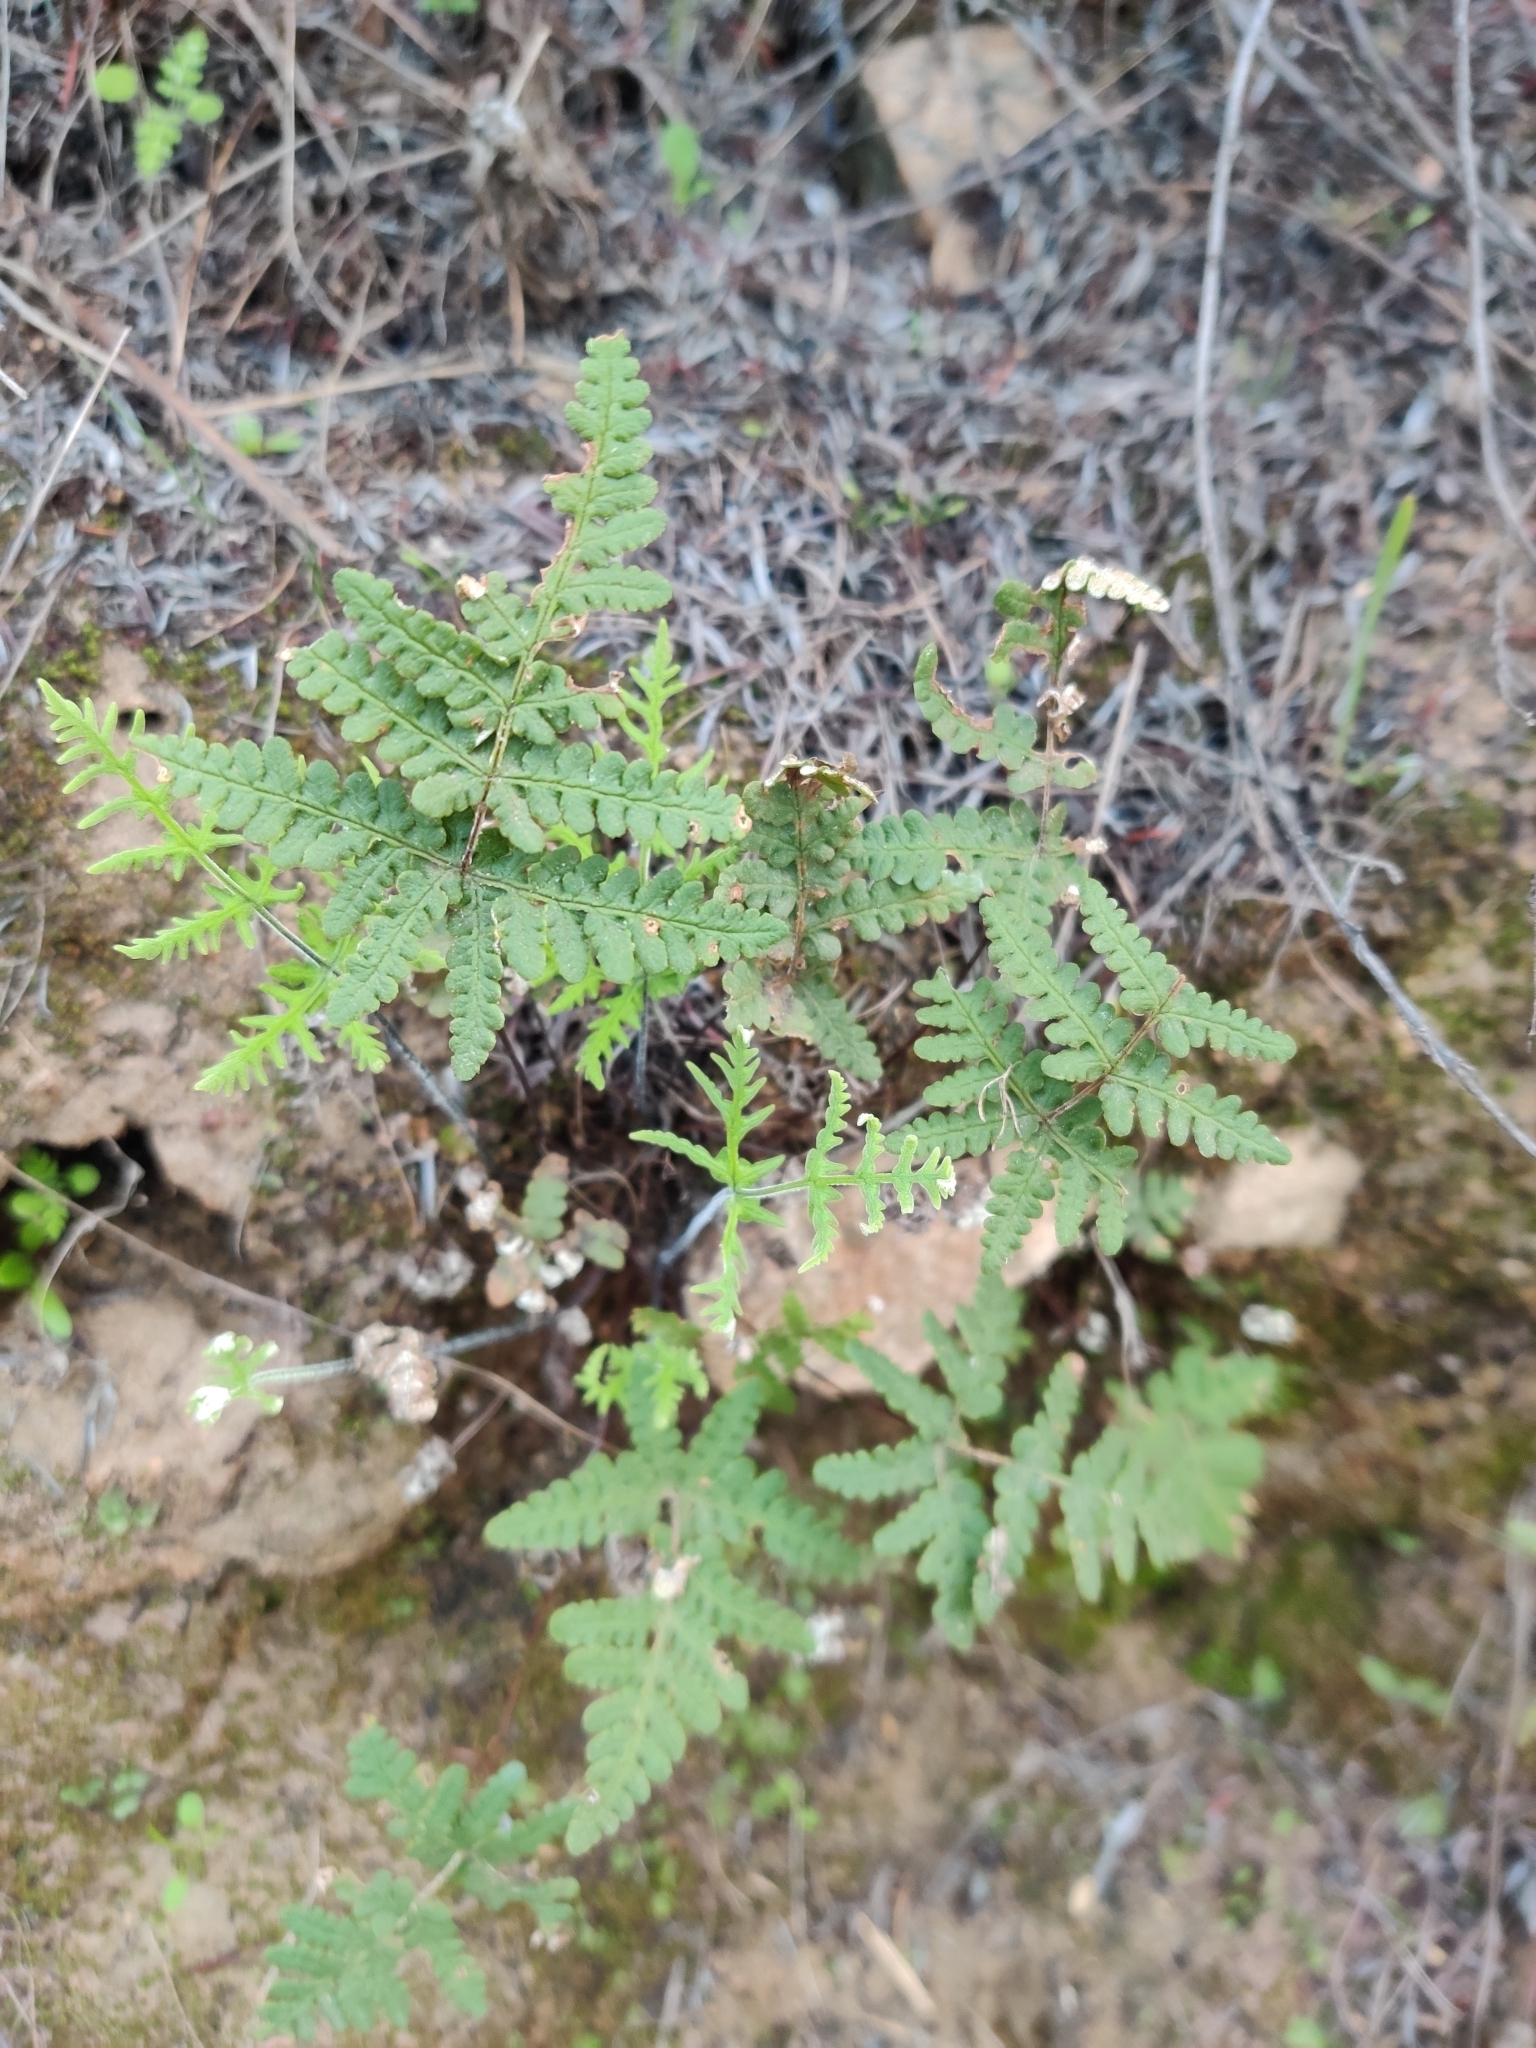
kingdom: Plantae
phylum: Tracheophyta
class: Polypodiopsida
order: Polypodiales
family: Pteridaceae
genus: Pentagramma
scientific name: Pentagramma glanduloviscida
